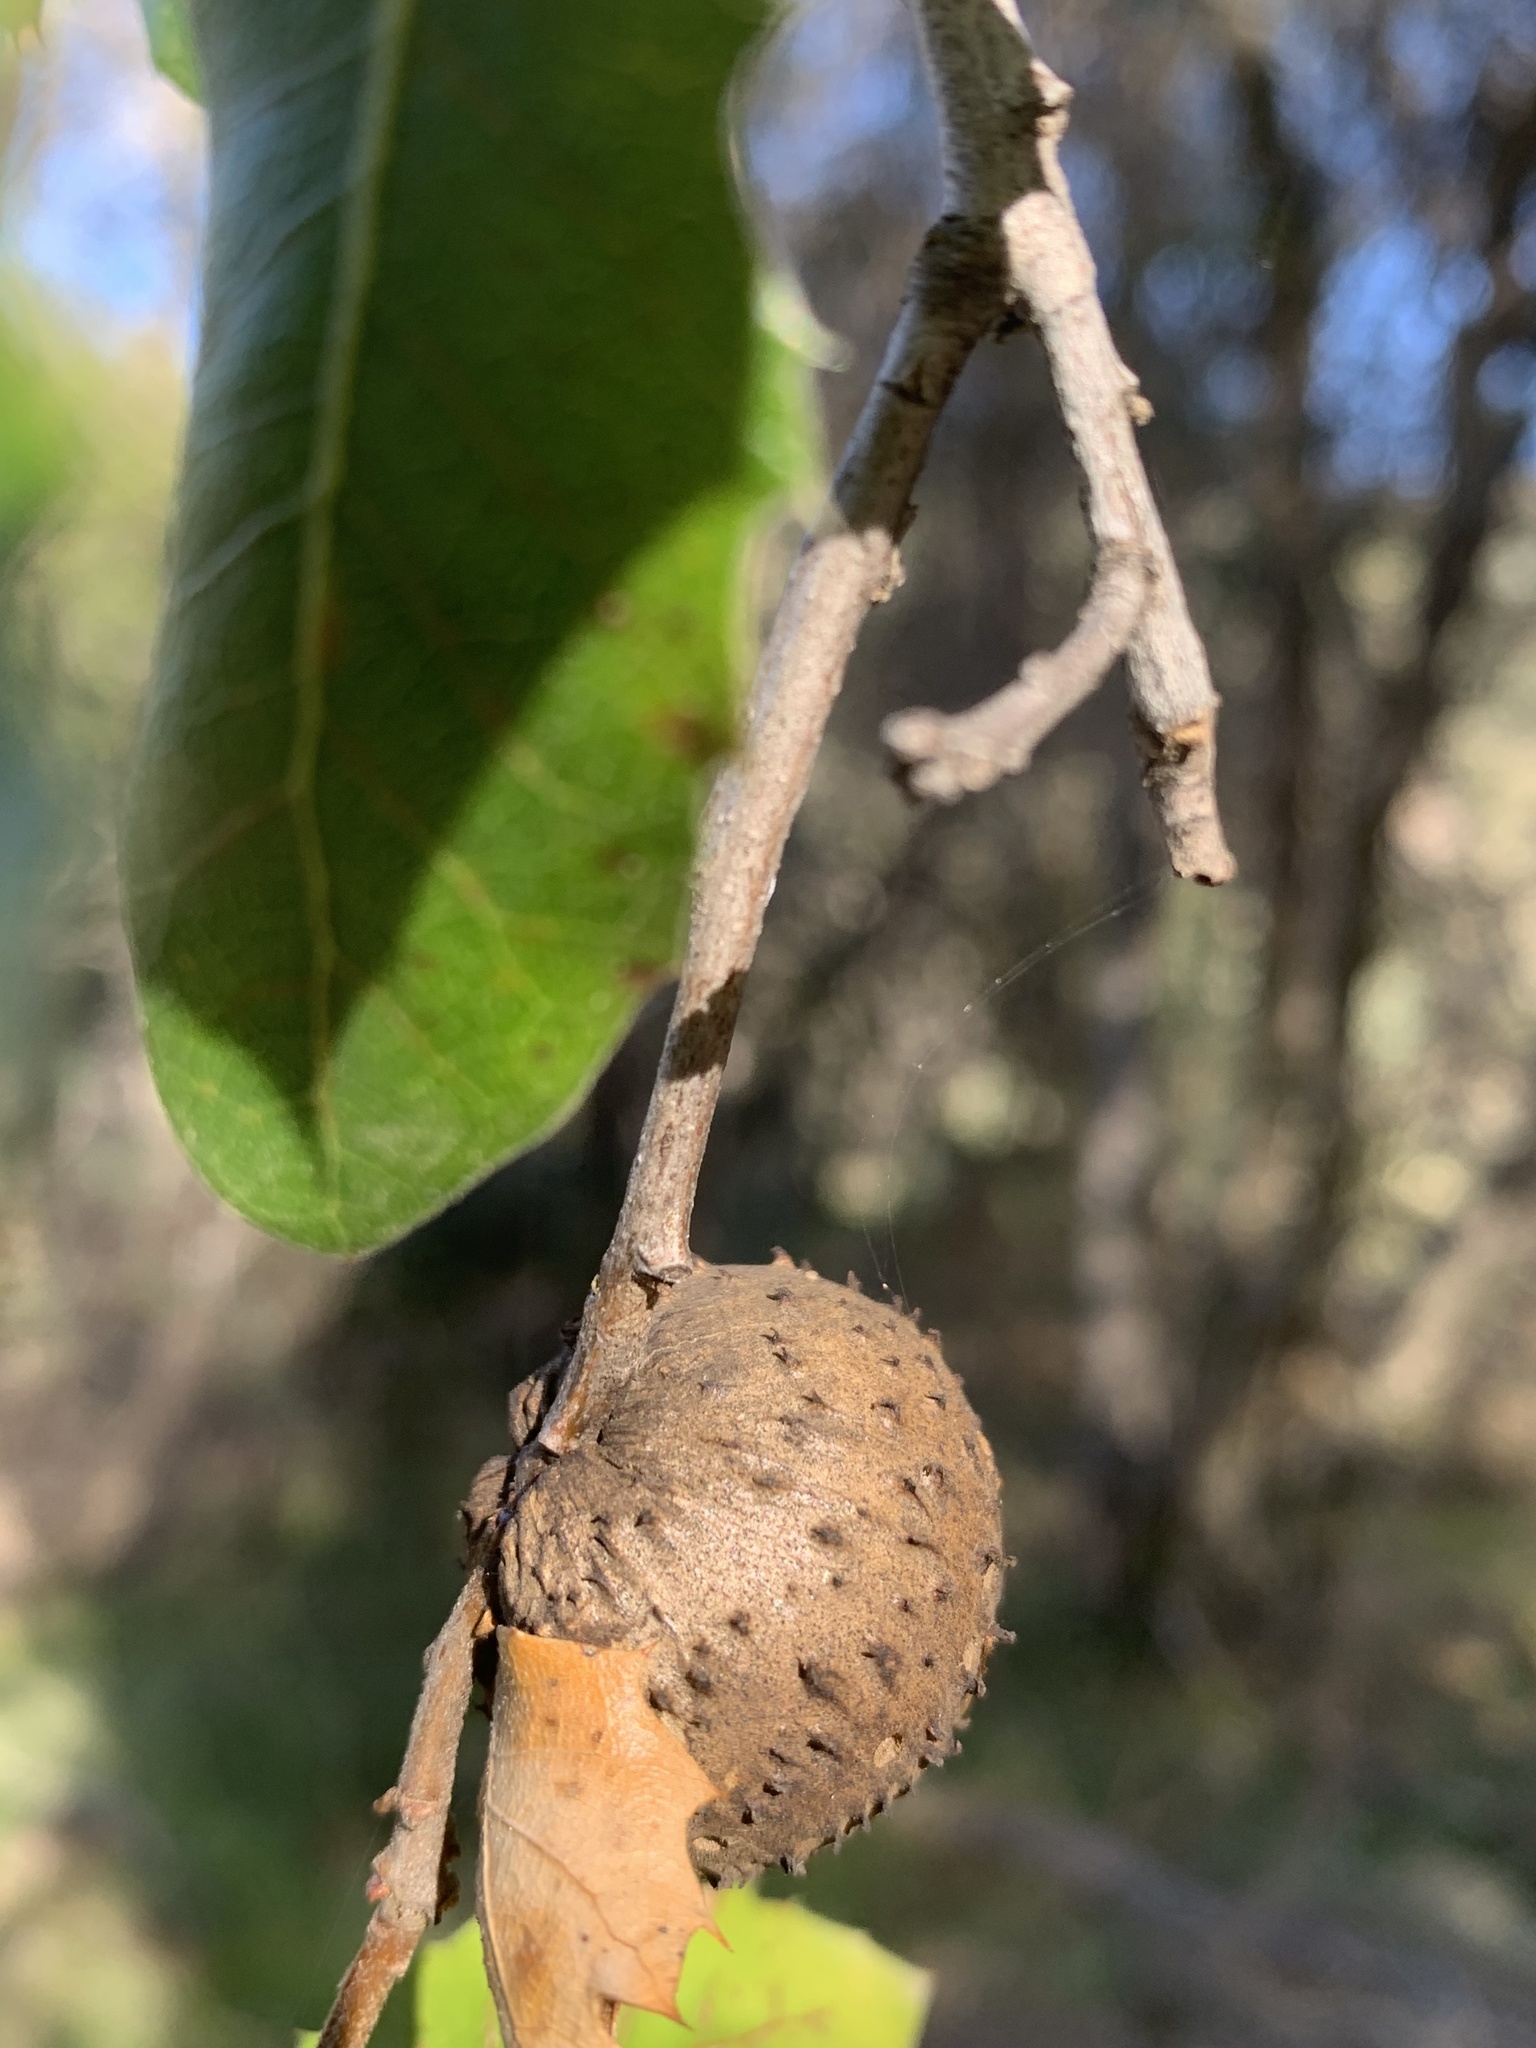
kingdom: Animalia
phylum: Arthropoda
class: Insecta
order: Hymenoptera
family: Cynipidae
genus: Amphibolips
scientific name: Amphibolips quercuspomiformis
